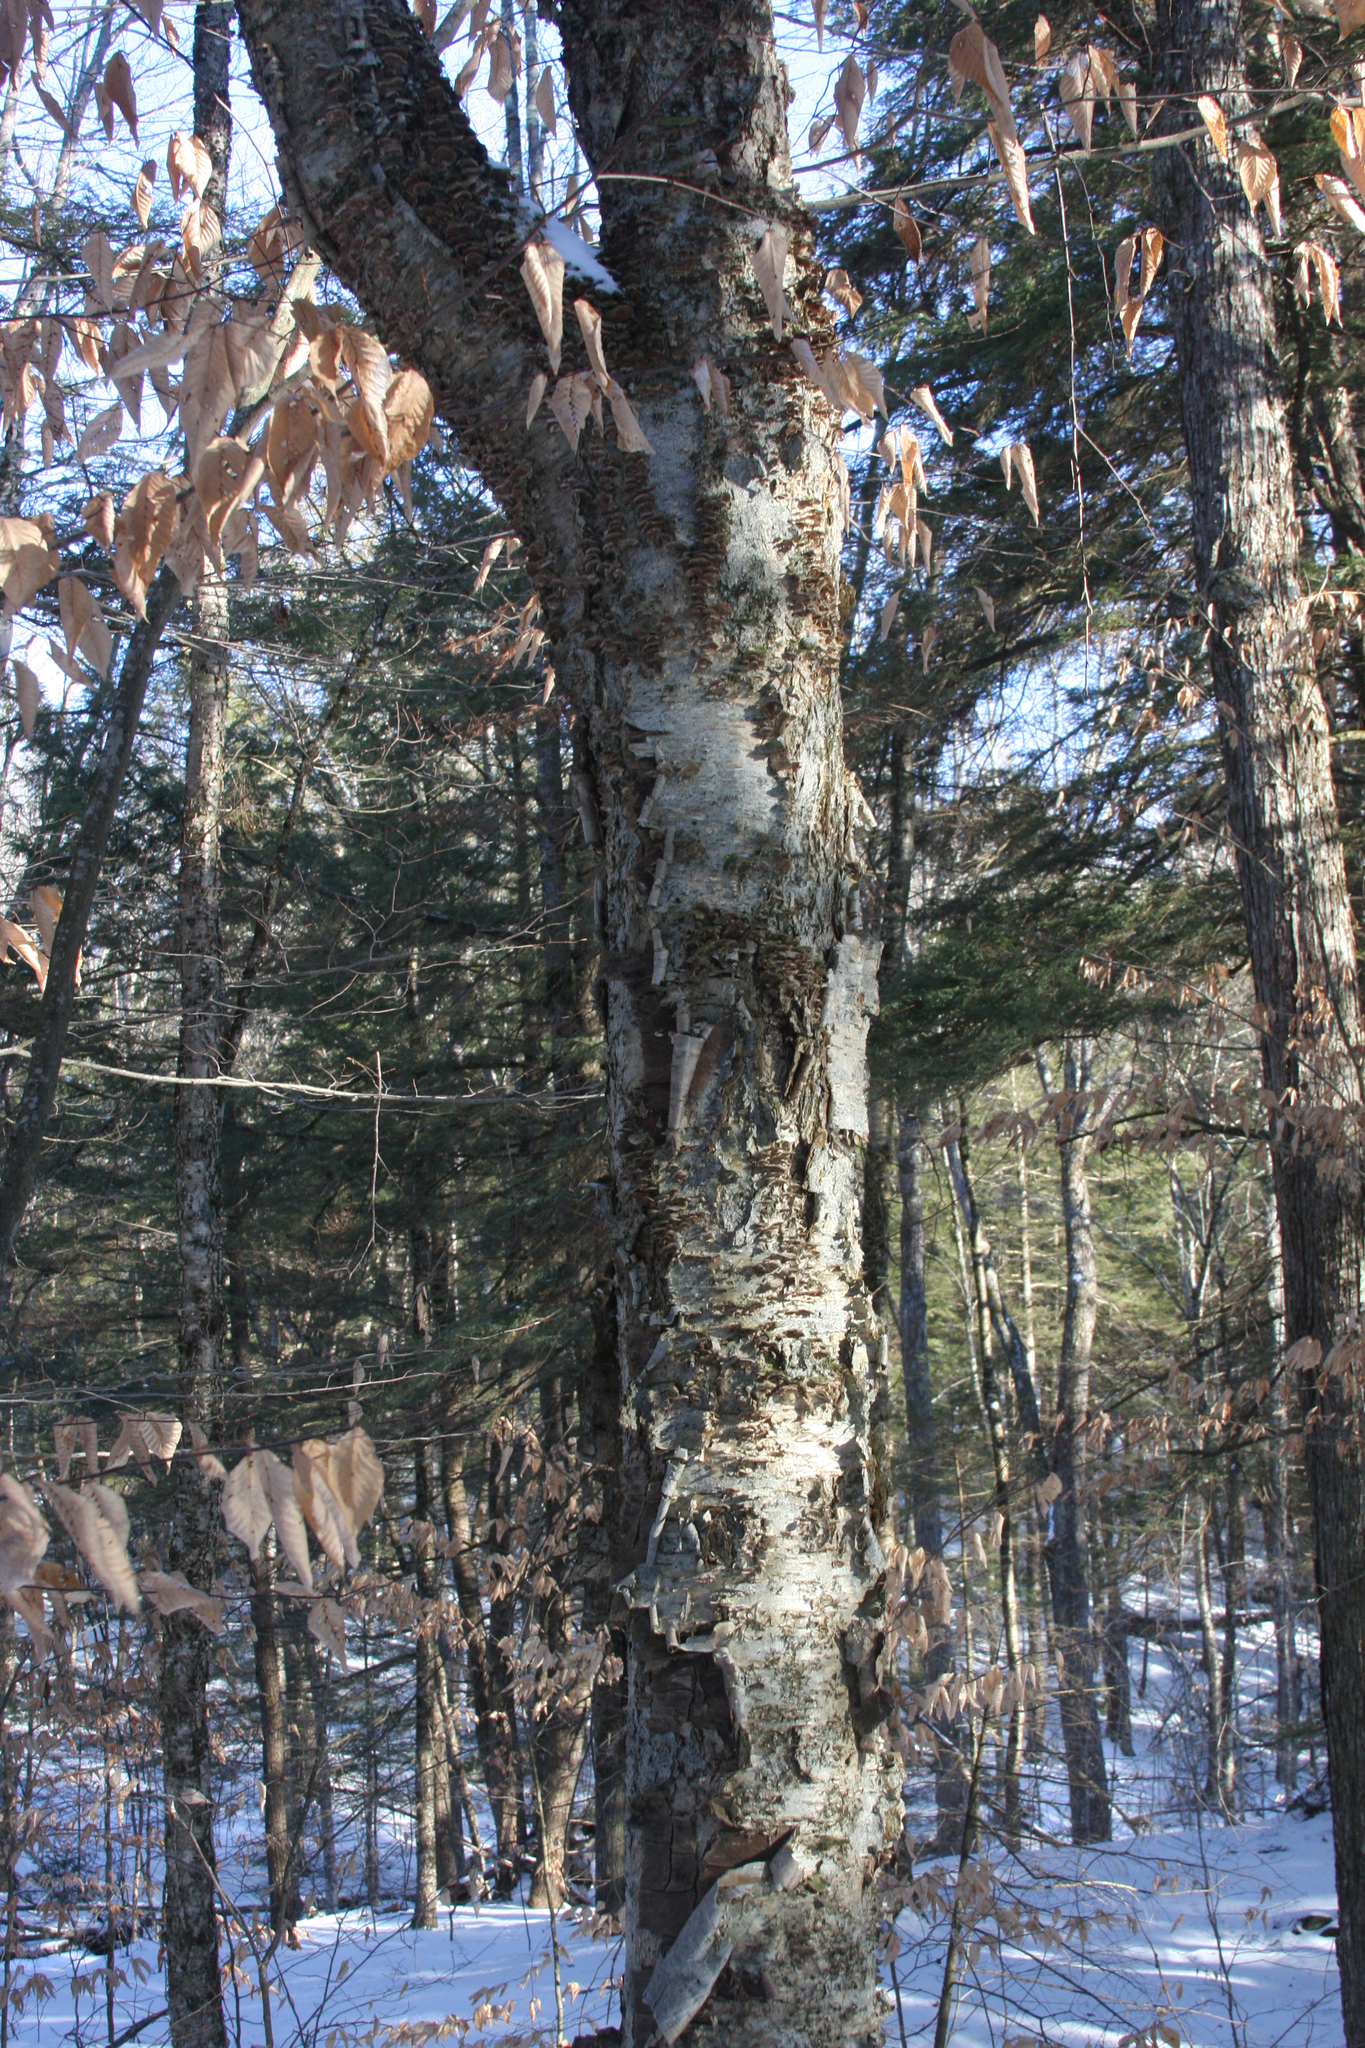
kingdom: Plantae
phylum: Tracheophyta
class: Magnoliopsida
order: Fagales
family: Betulaceae
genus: Betula
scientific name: Betula alleghaniensis
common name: Yellow birch
